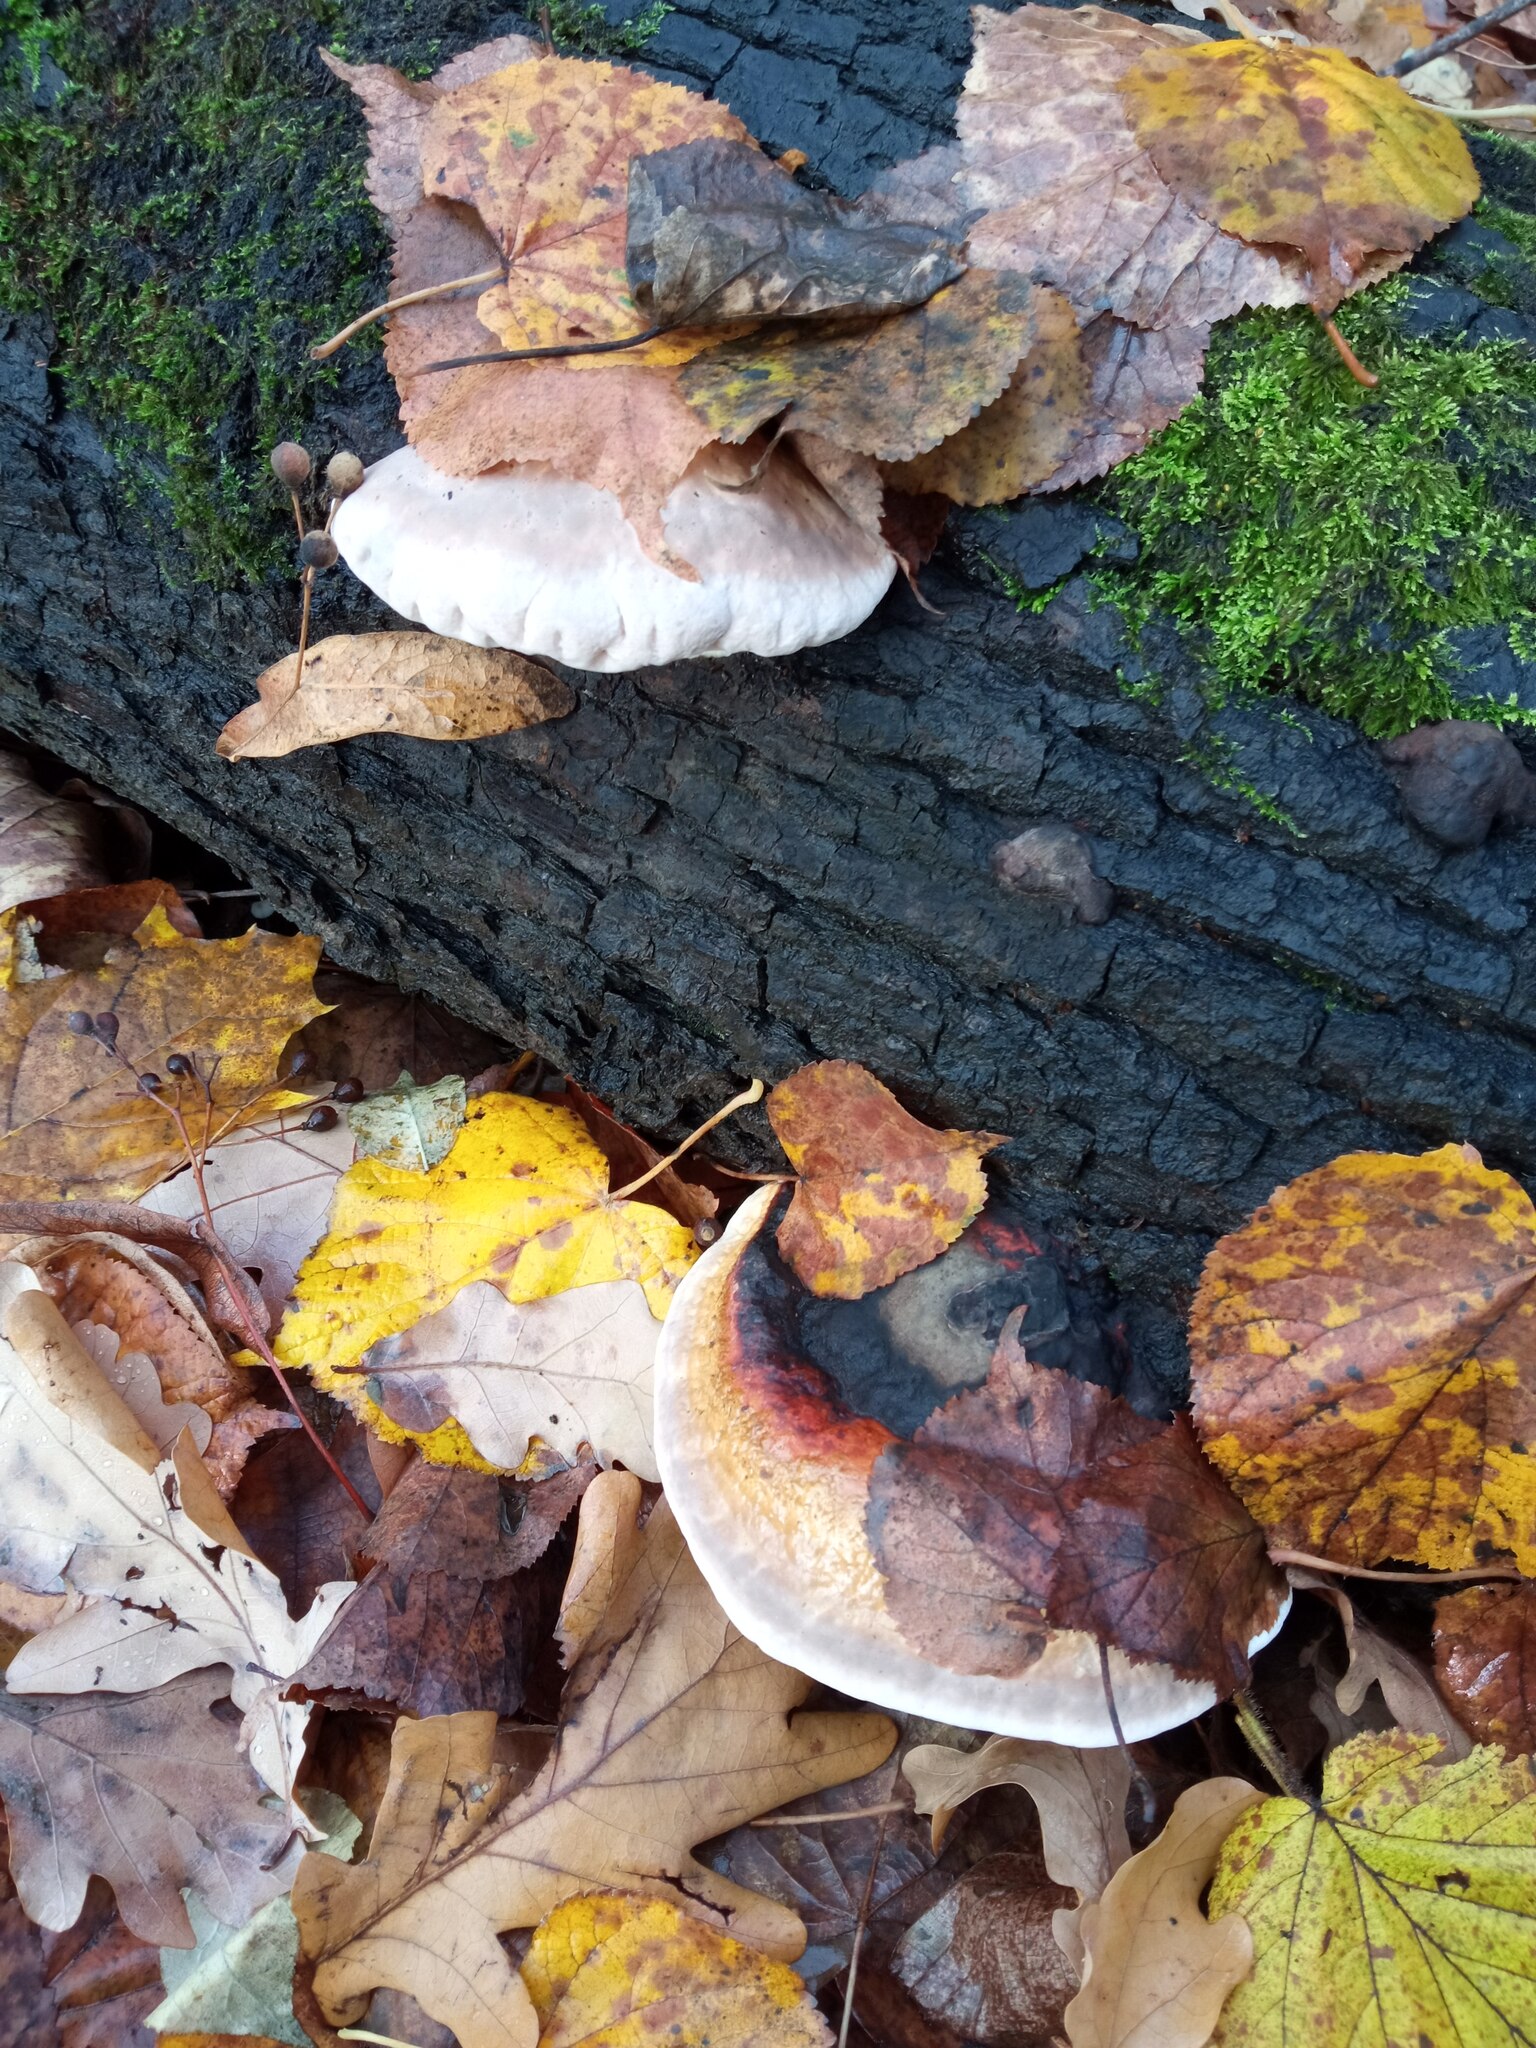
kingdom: Fungi
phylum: Basidiomycota
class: Agaricomycetes
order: Polyporales
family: Fomitopsidaceae
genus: Fomitopsis
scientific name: Fomitopsis pinicola
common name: Red-belted bracket
